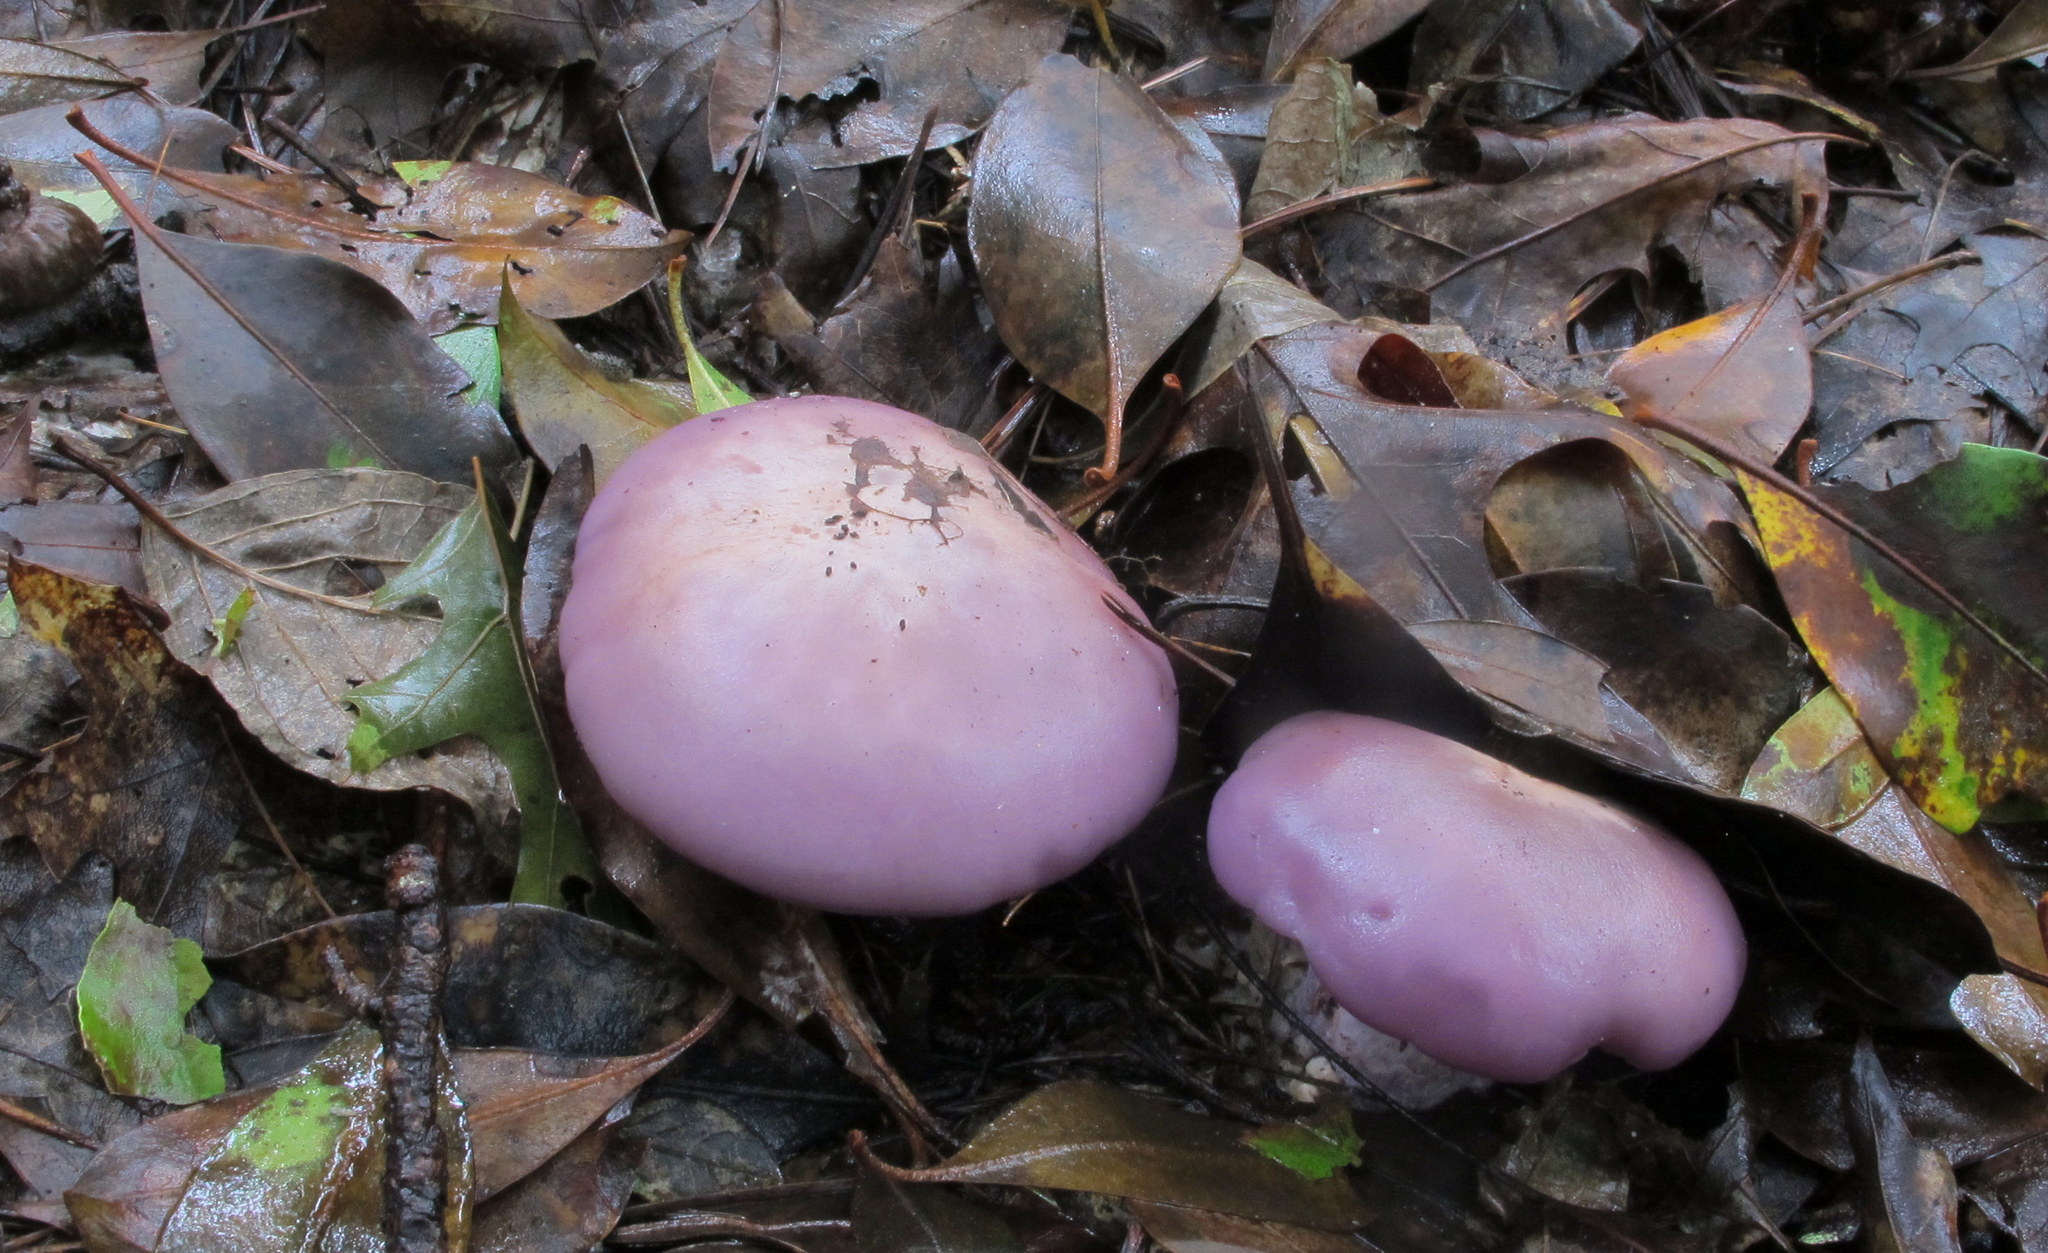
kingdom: Fungi
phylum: Basidiomycota
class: Agaricomycetes
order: Agaricales
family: Tricholomataceae
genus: Collybia
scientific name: Collybia
